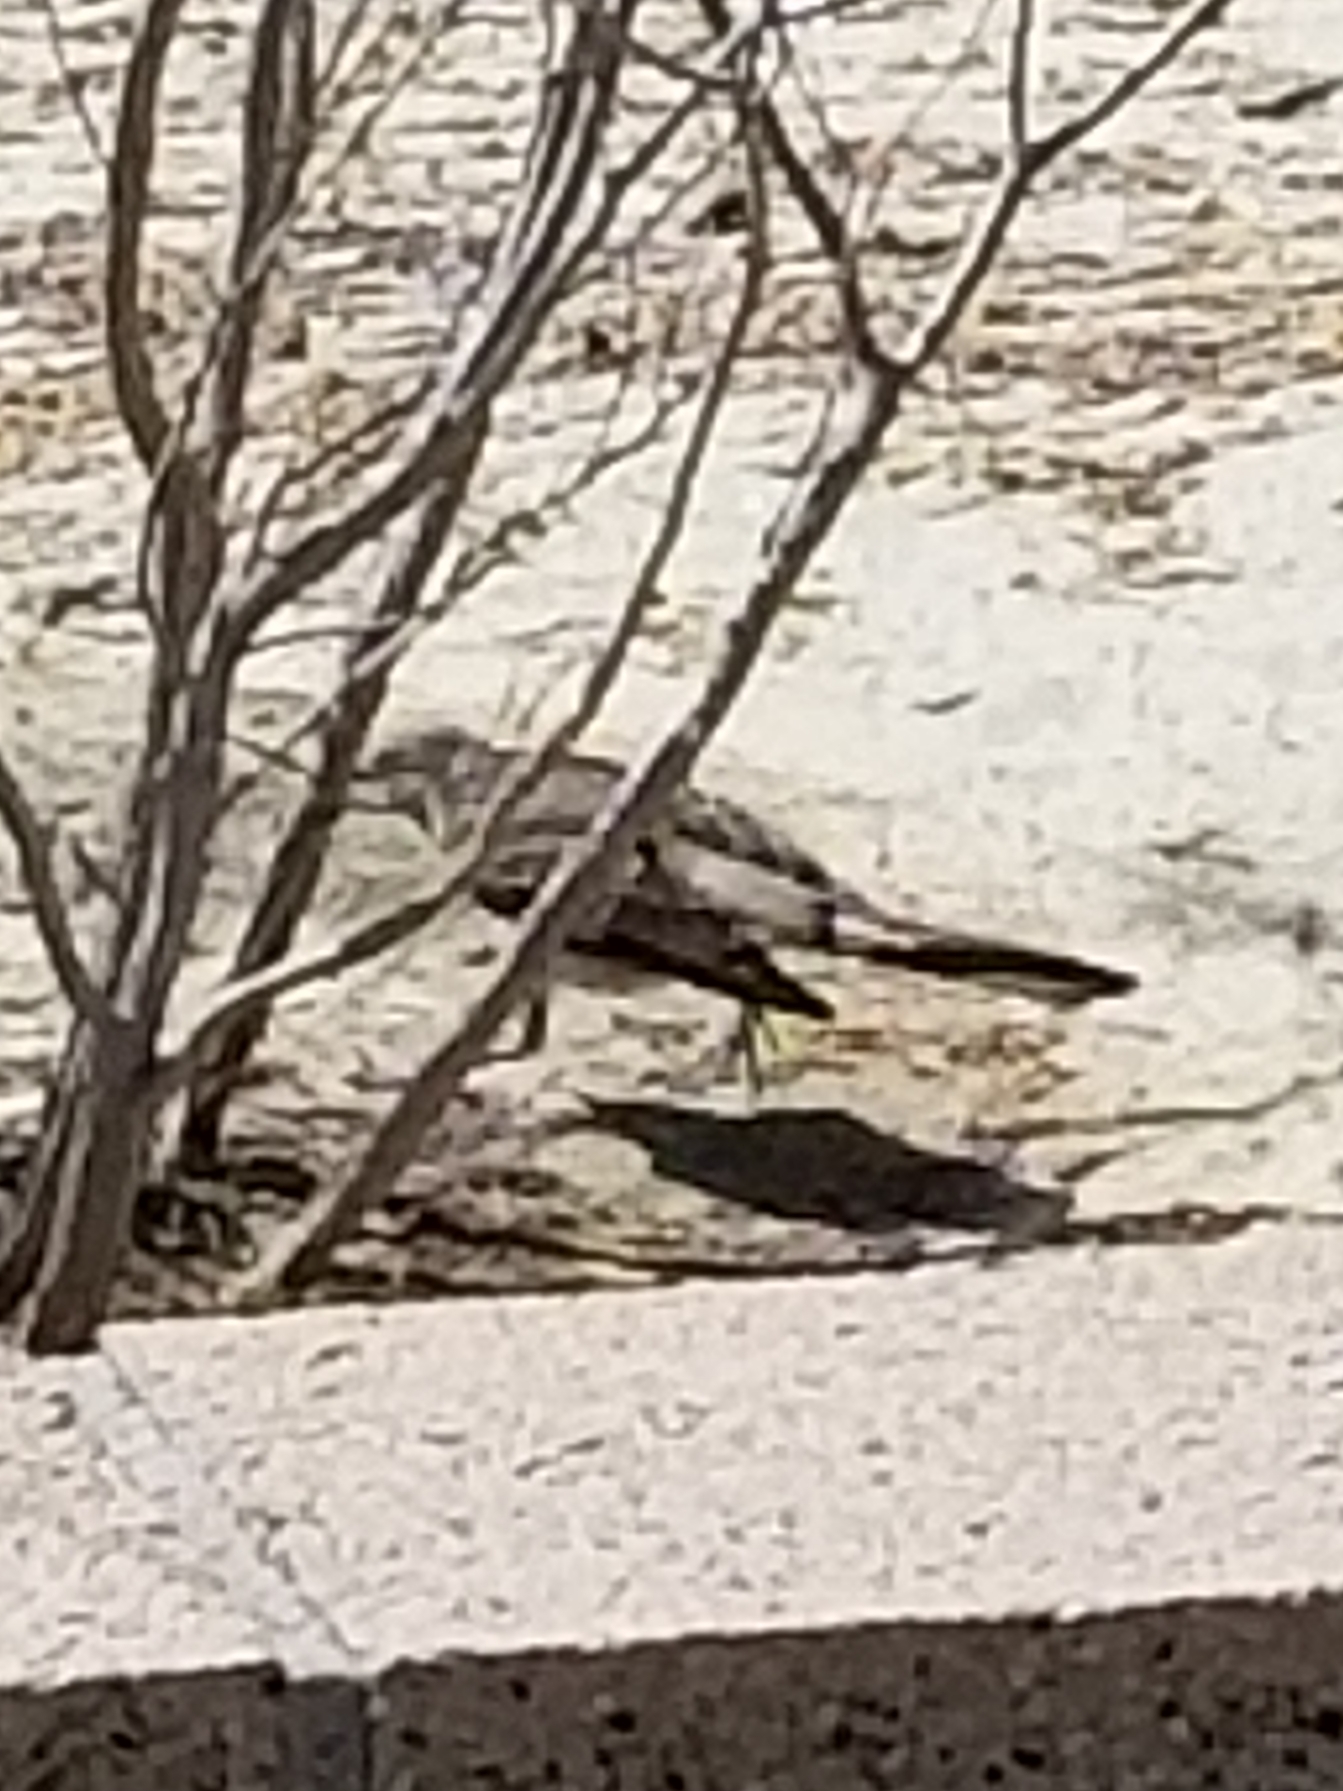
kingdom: Animalia
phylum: Chordata
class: Aves
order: Passeriformes
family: Mimidae
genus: Mimus
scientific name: Mimus polyglottos
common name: Northern mockingbird
